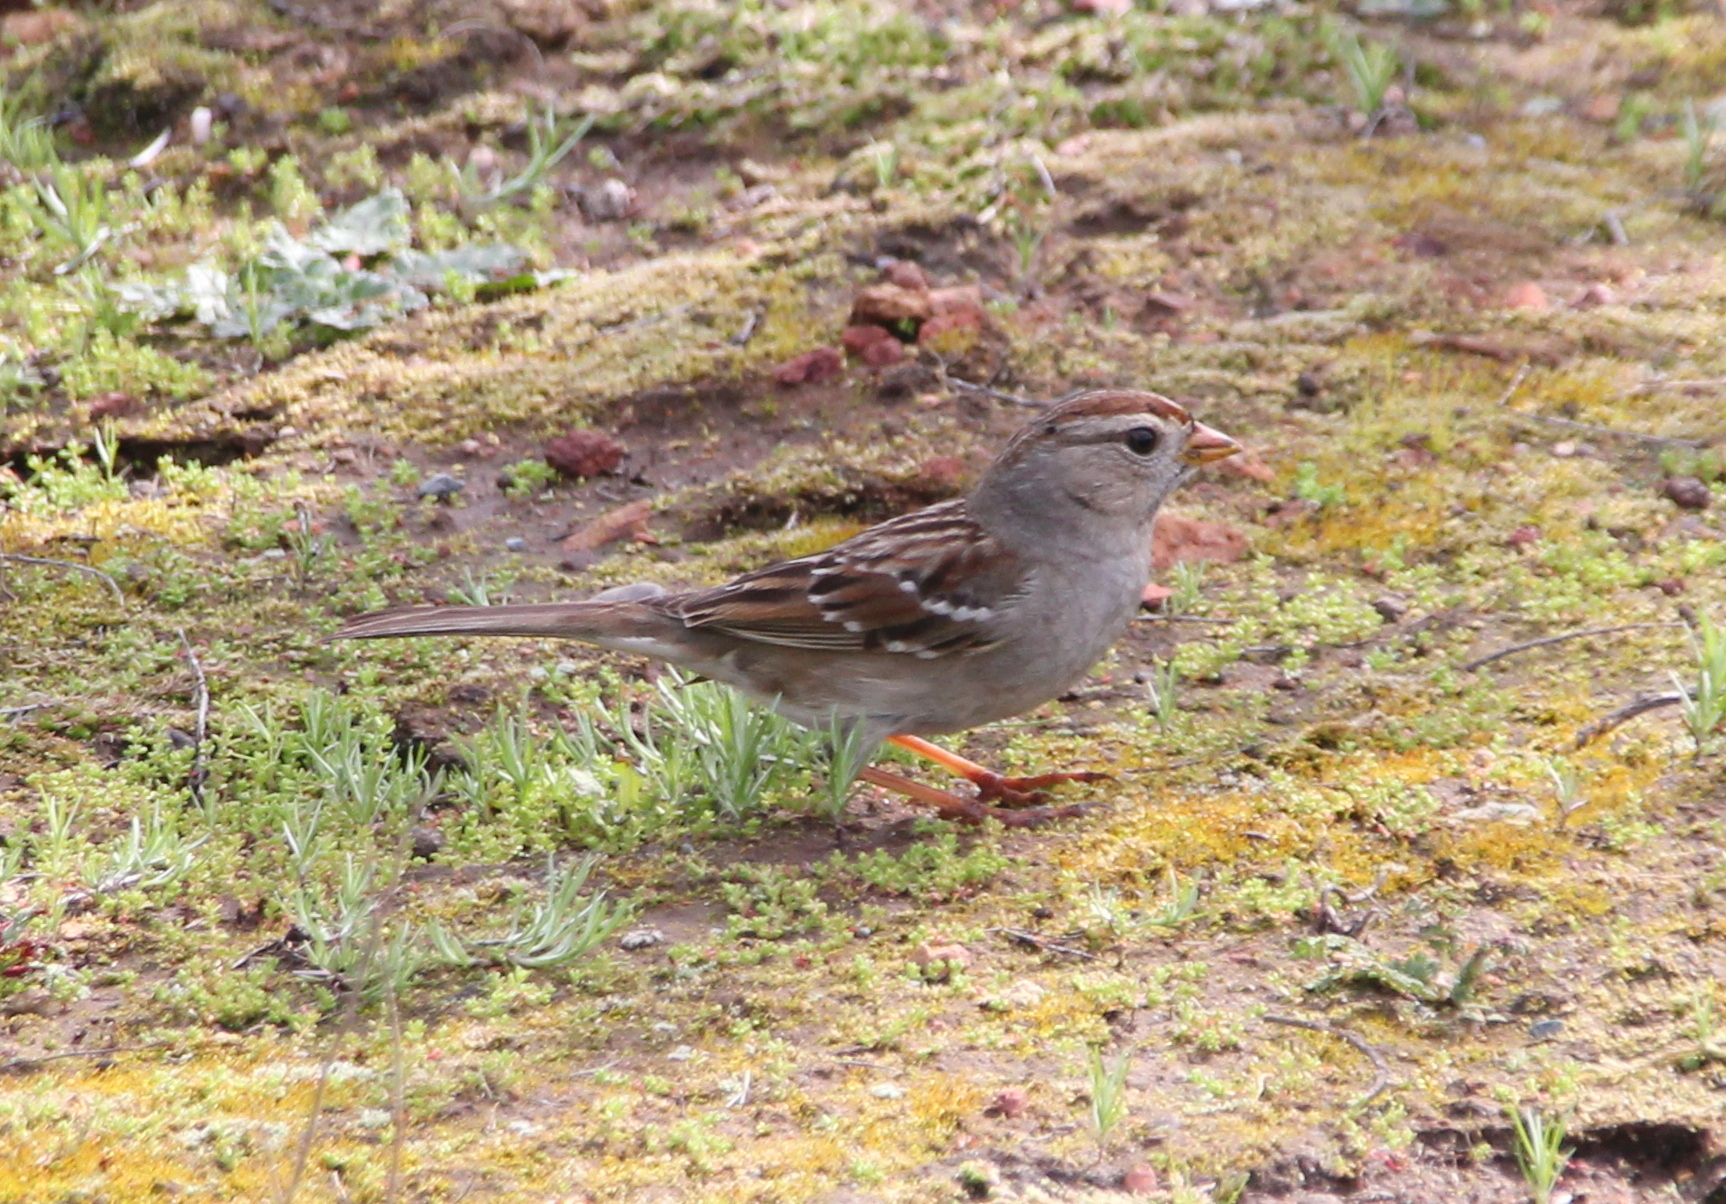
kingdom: Animalia
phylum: Chordata
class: Aves
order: Passeriformes
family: Passerellidae
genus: Zonotrichia
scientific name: Zonotrichia leucophrys
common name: White-crowned sparrow
